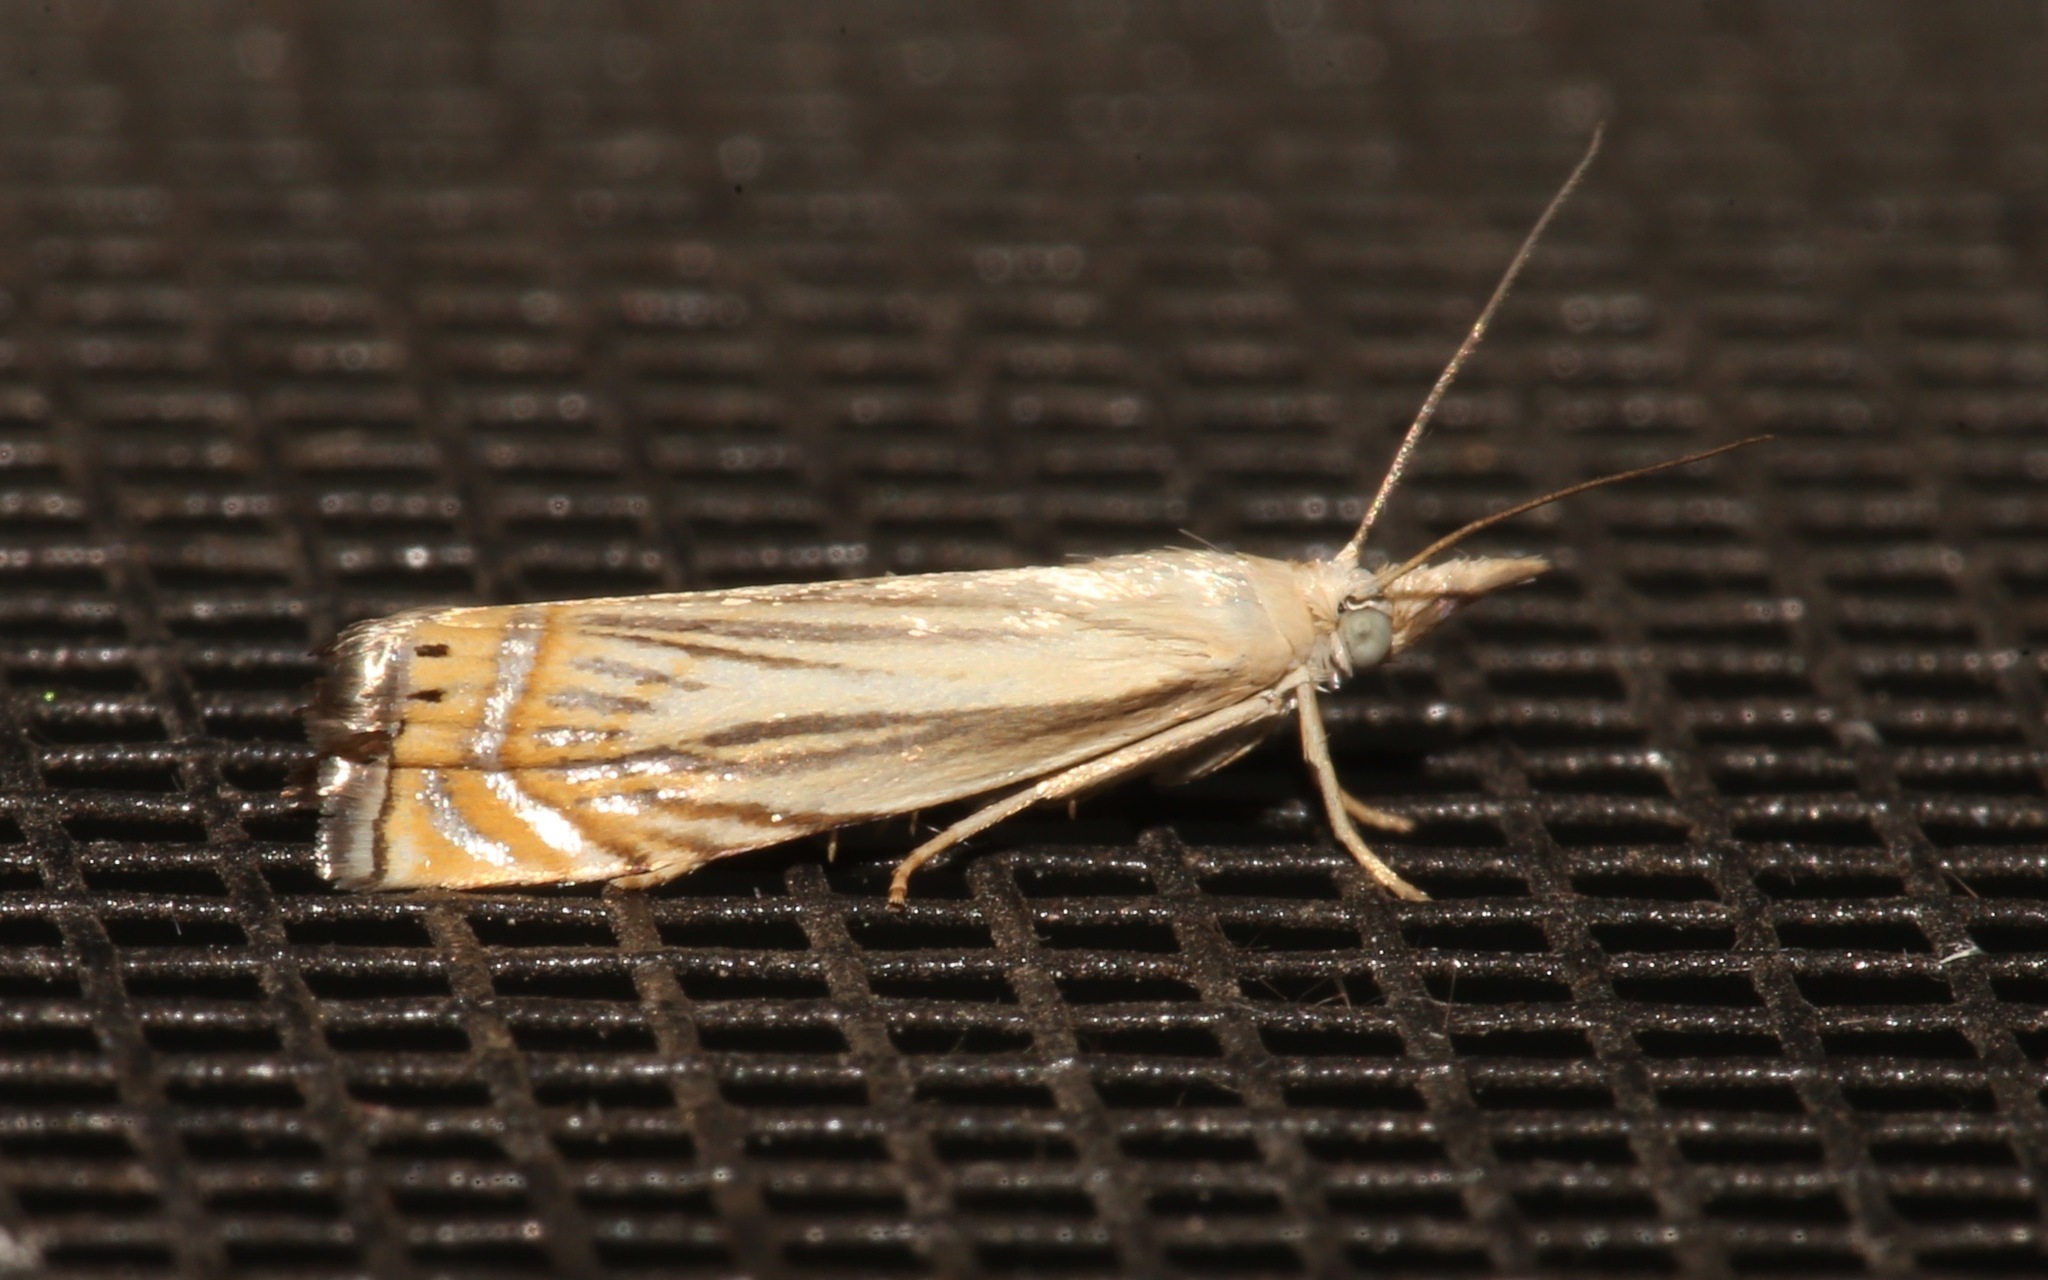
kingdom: Animalia
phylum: Arthropoda
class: Insecta
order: Lepidoptera
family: Crambidae
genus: Chrysoteuchia
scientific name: Chrysoteuchia topiarius
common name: Topiary grass-veneer
